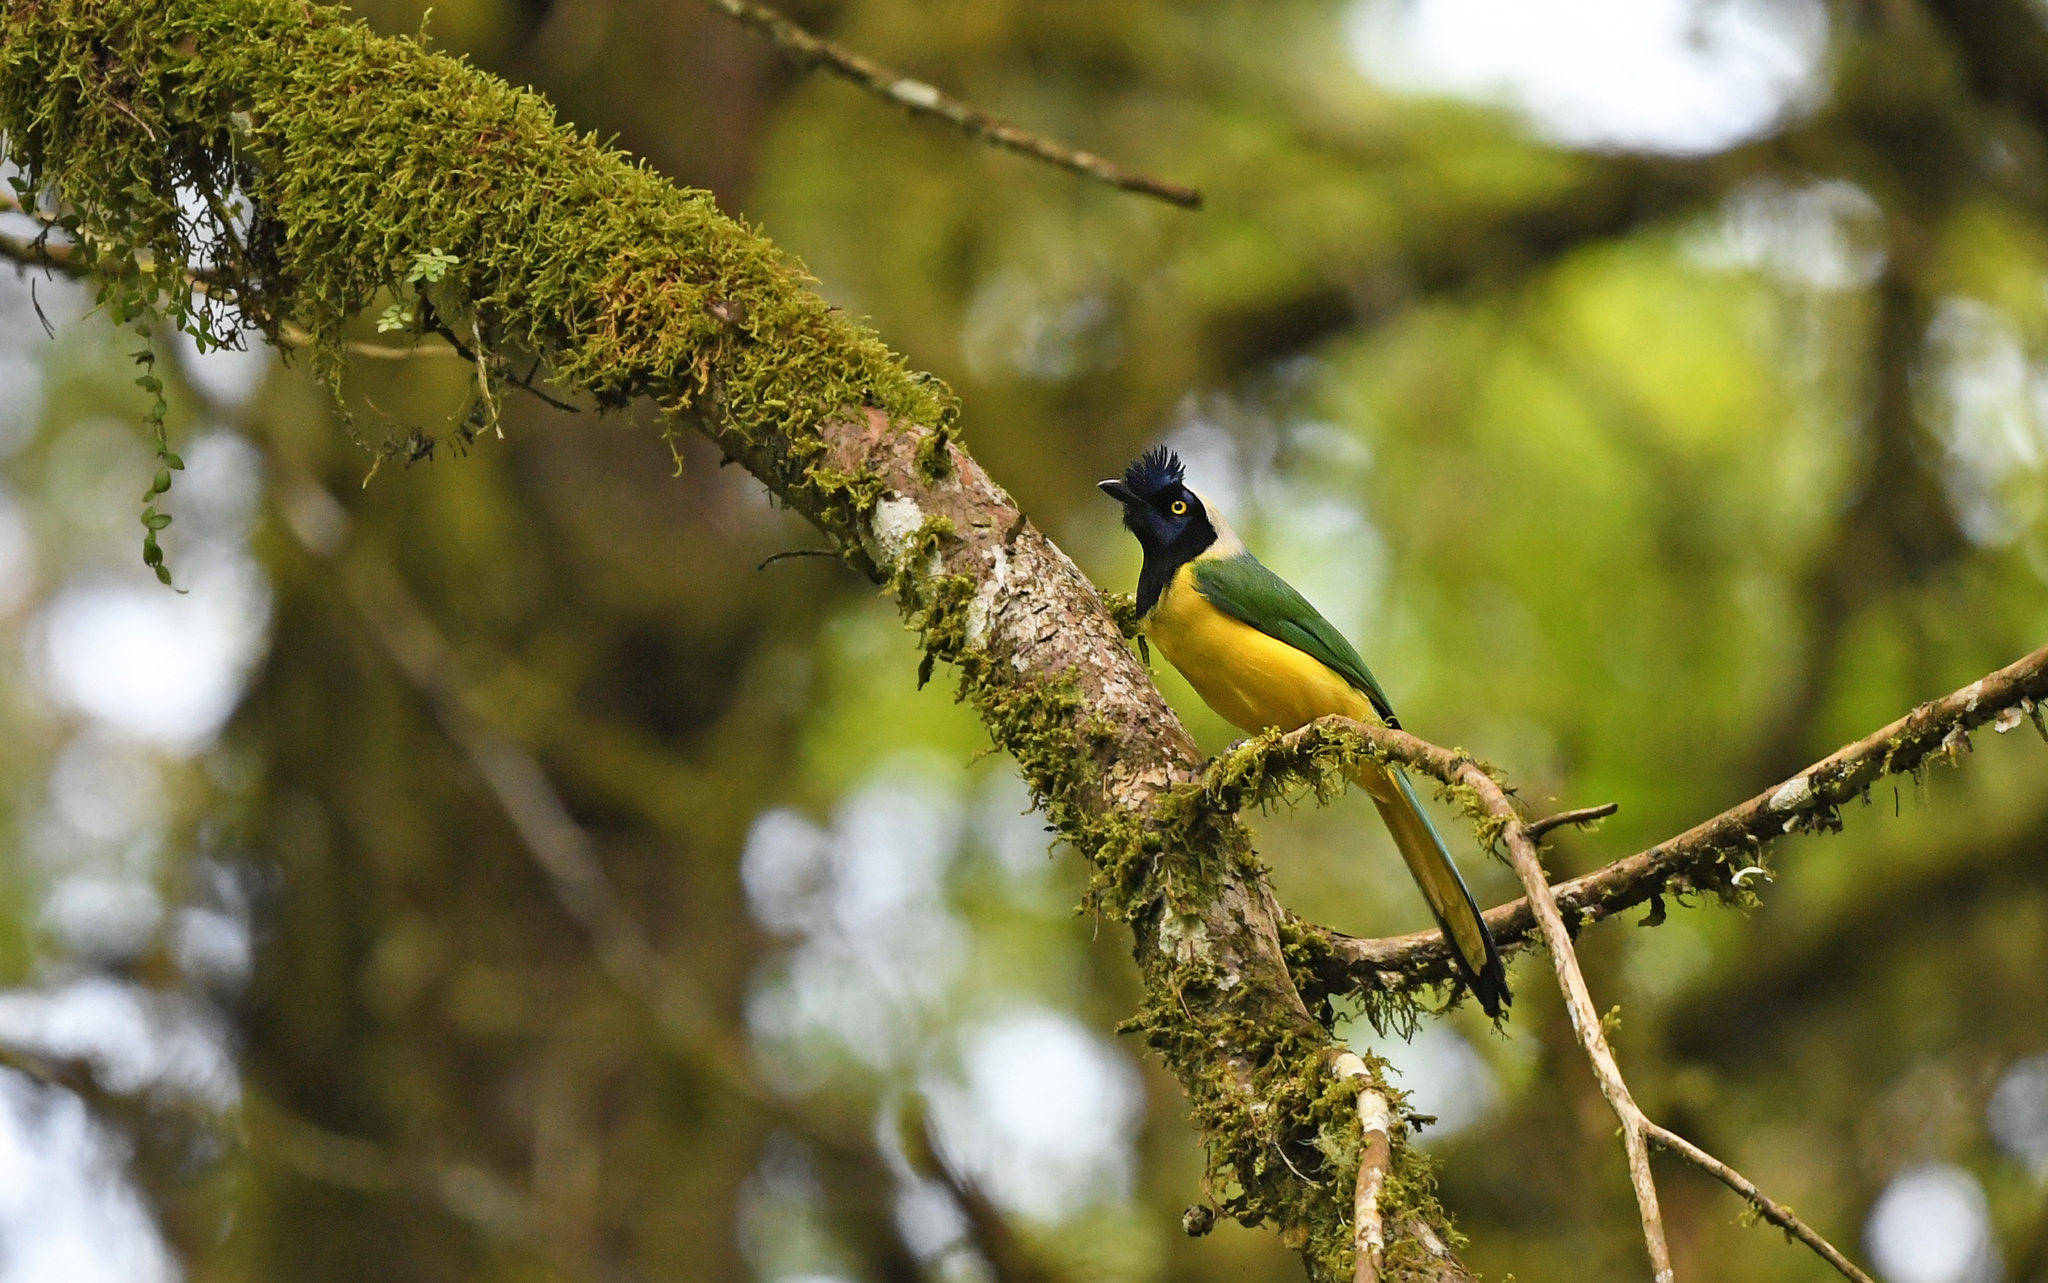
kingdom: Animalia
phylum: Chordata
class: Aves
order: Passeriformes
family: Corvidae
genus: Cyanocorax
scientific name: Cyanocorax yncas
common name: Green jay
